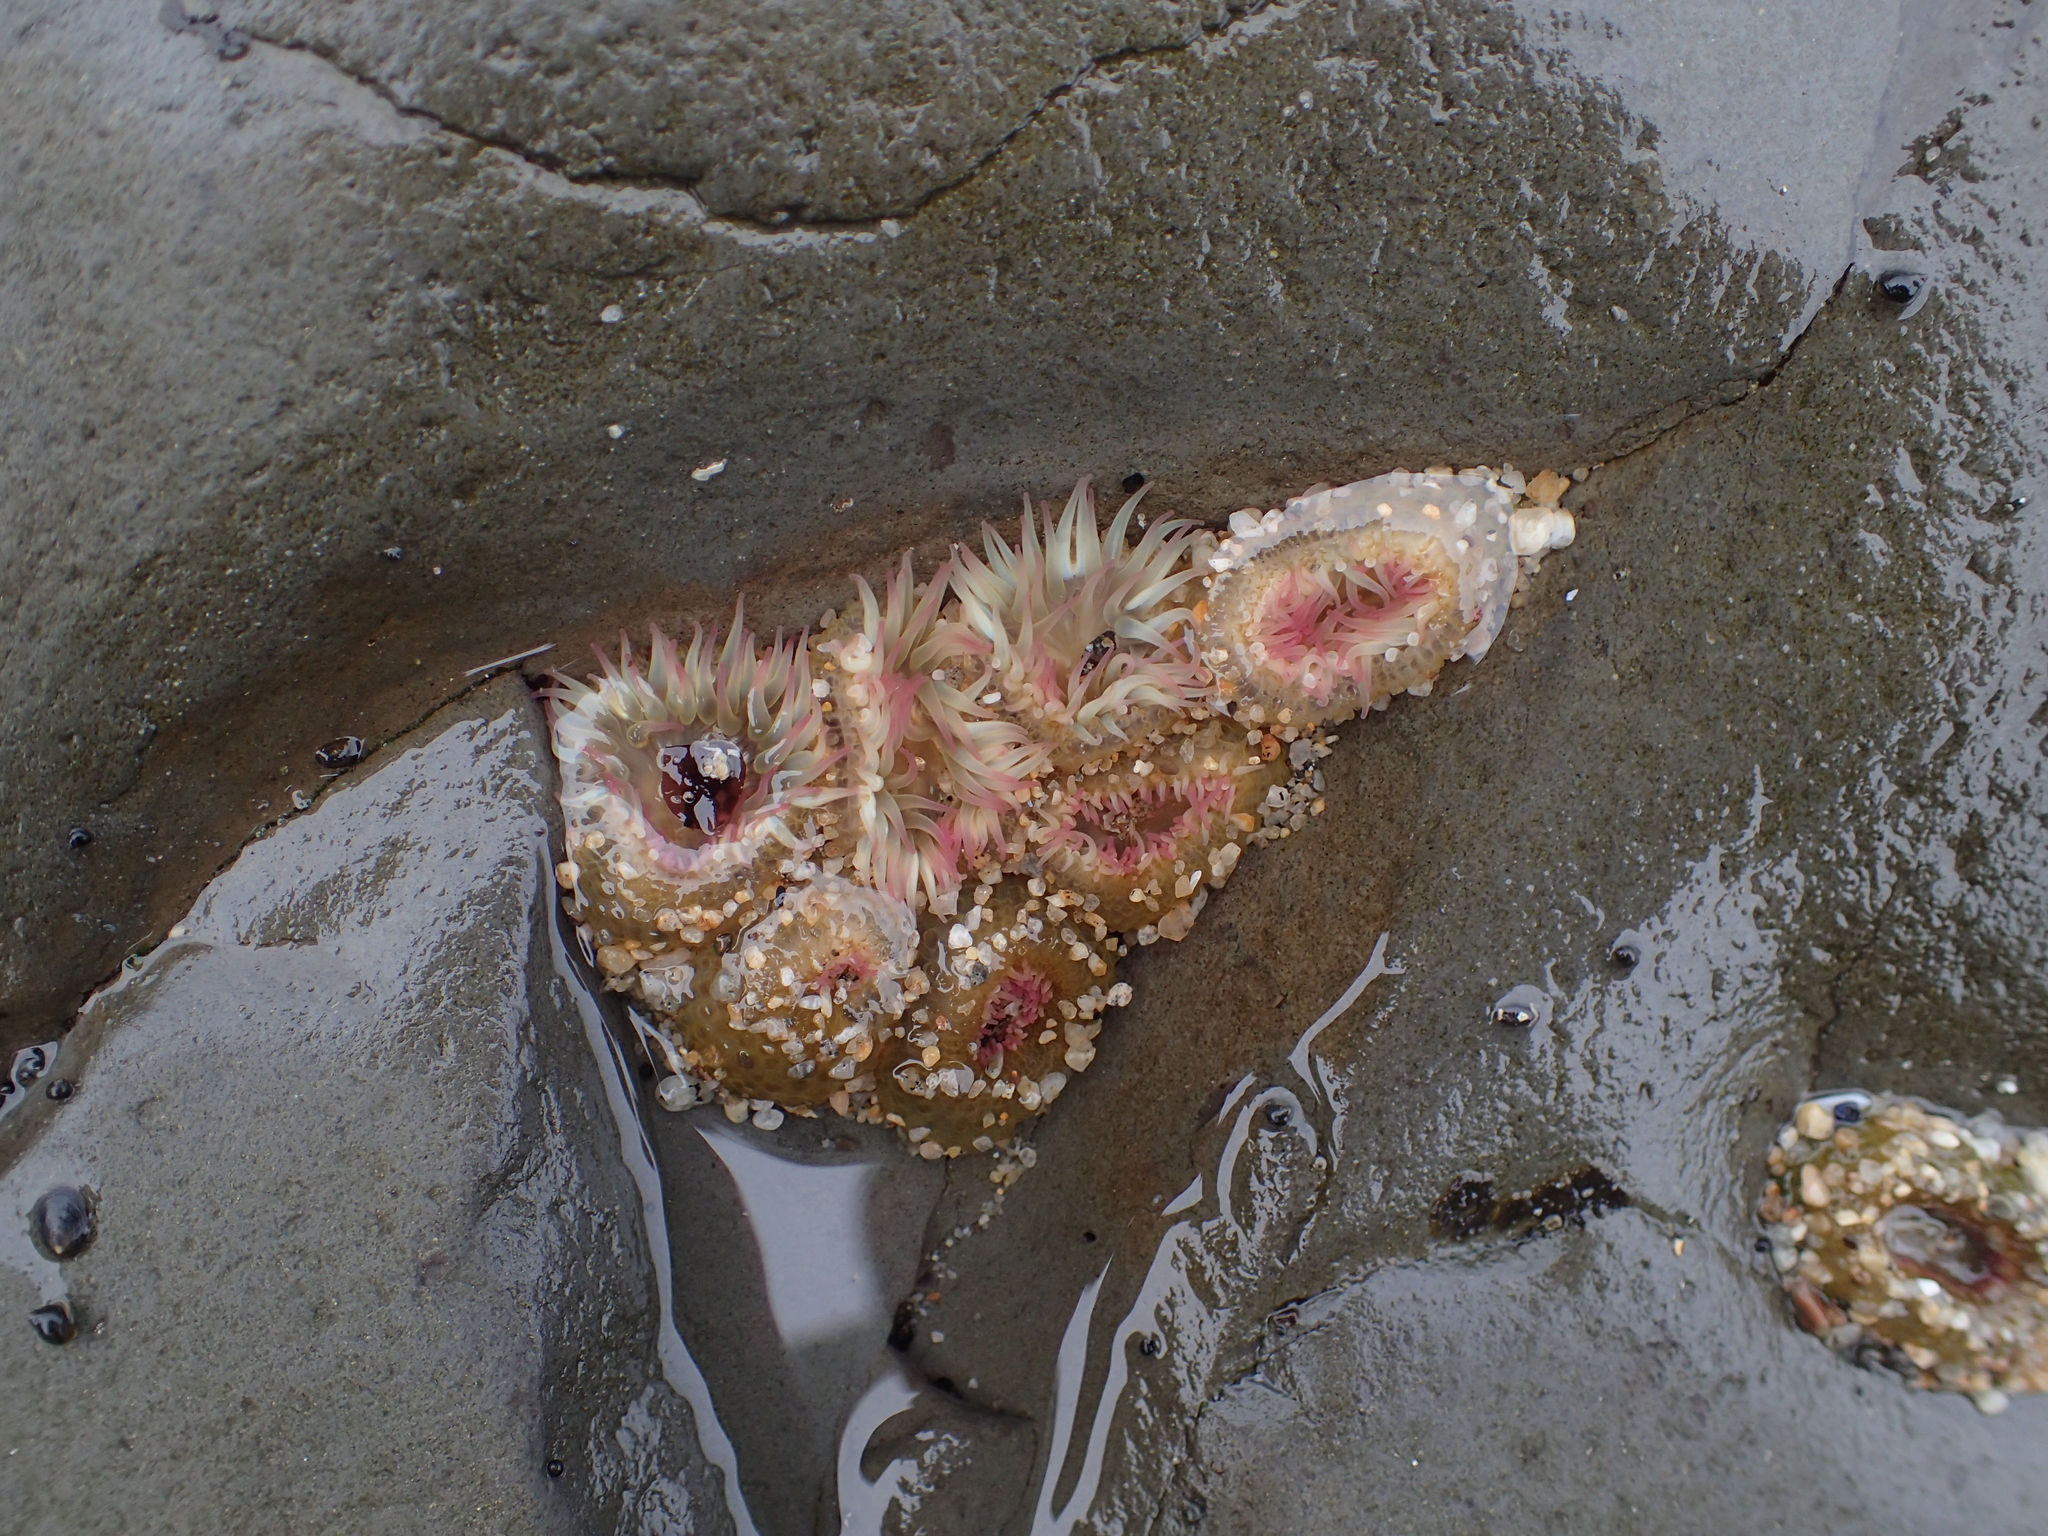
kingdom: Animalia
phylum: Cnidaria
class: Anthozoa
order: Actiniaria
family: Actiniidae
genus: Anthopleura
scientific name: Anthopleura elegantissima
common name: Clonal anemone
